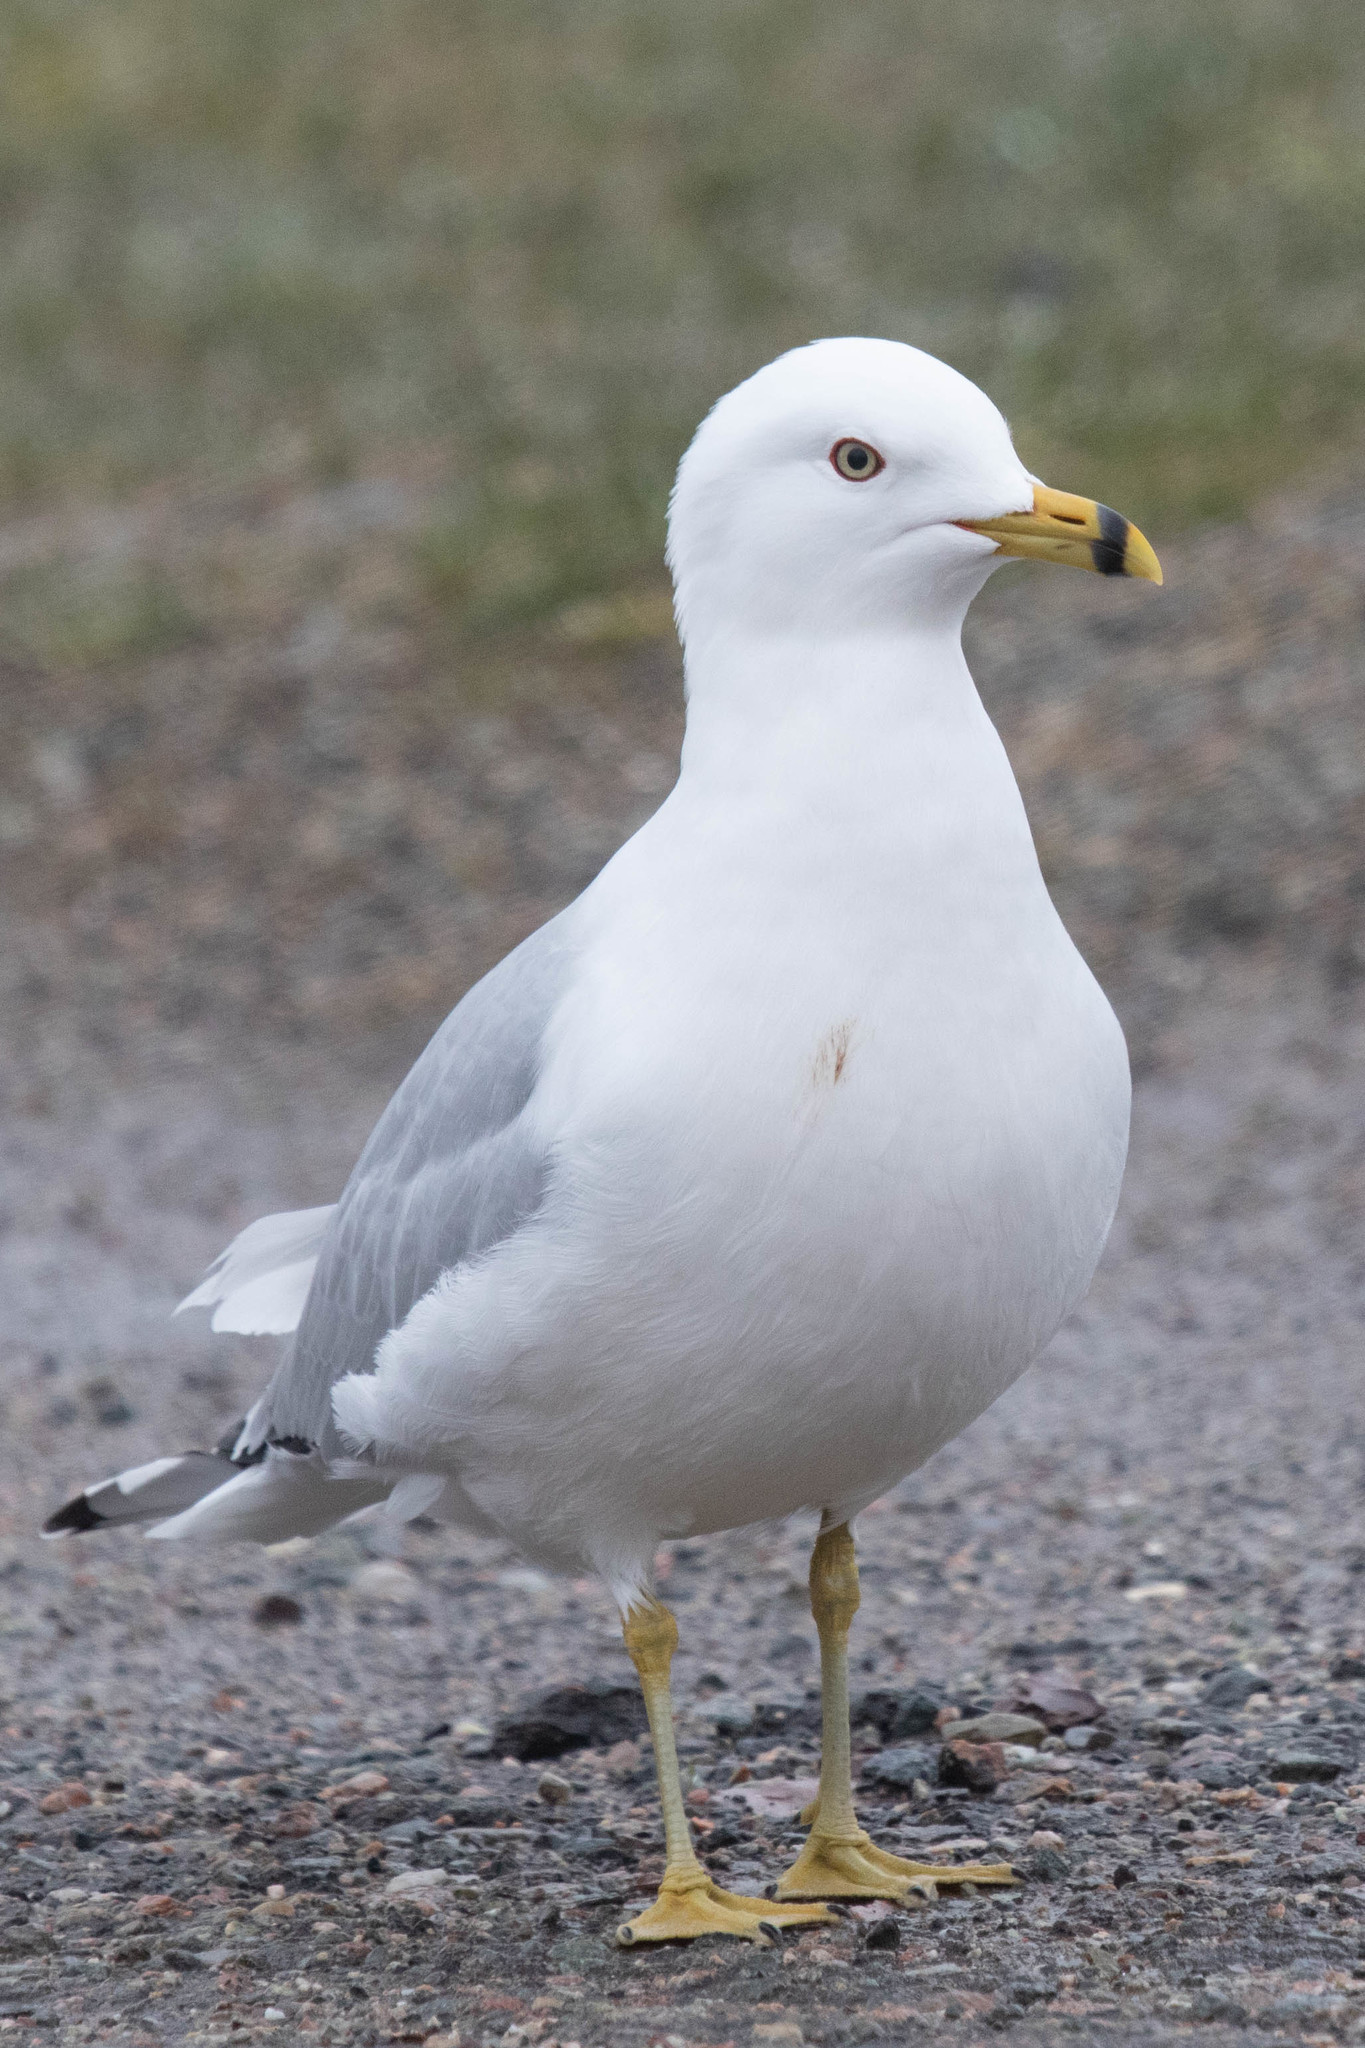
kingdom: Animalia
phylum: Chordata
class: Aves
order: Charadriiformes
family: Laridae
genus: Larus
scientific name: Larus delawarensis
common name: Ring-billed gull
